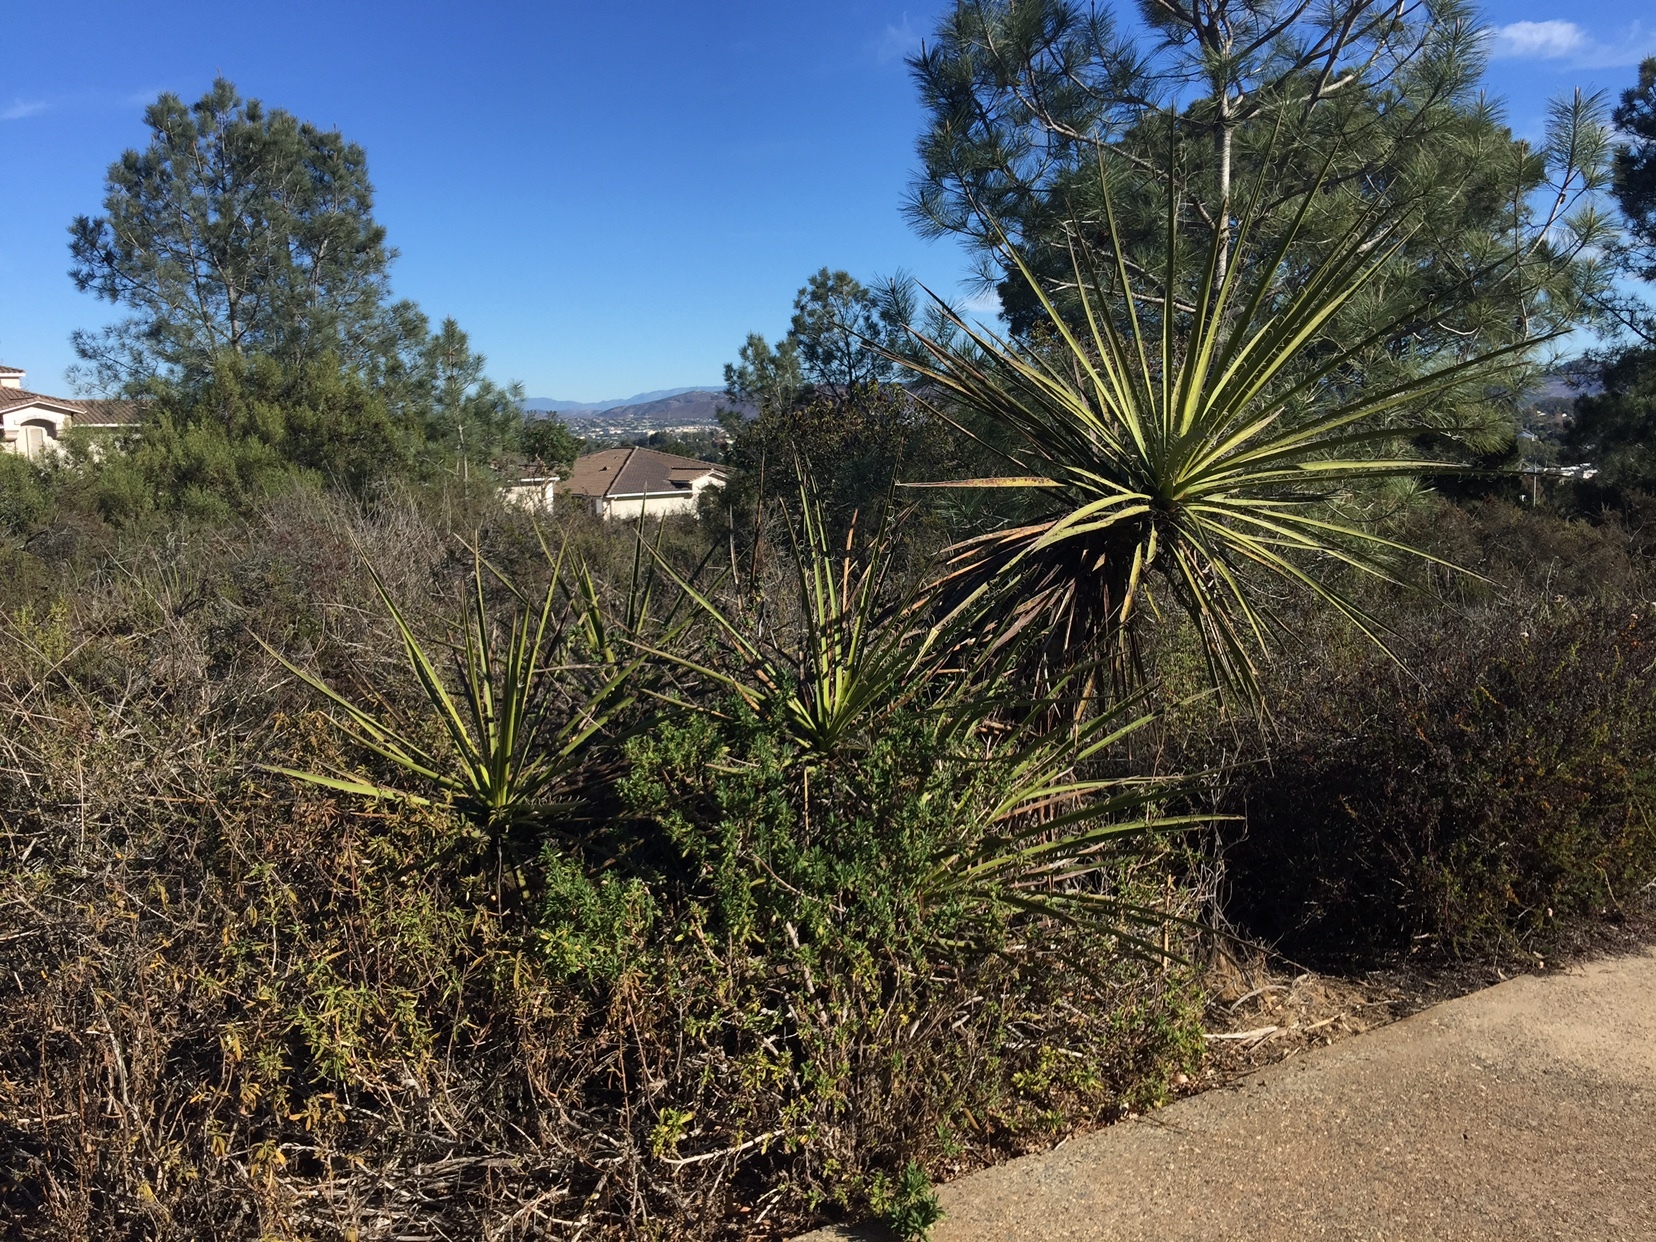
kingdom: Plantae
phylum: Tracheophyta
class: Liliopsida
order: Asparagales
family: Asparagaceae
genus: Yucca
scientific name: Yucca schidigera
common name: Mojave yucca
